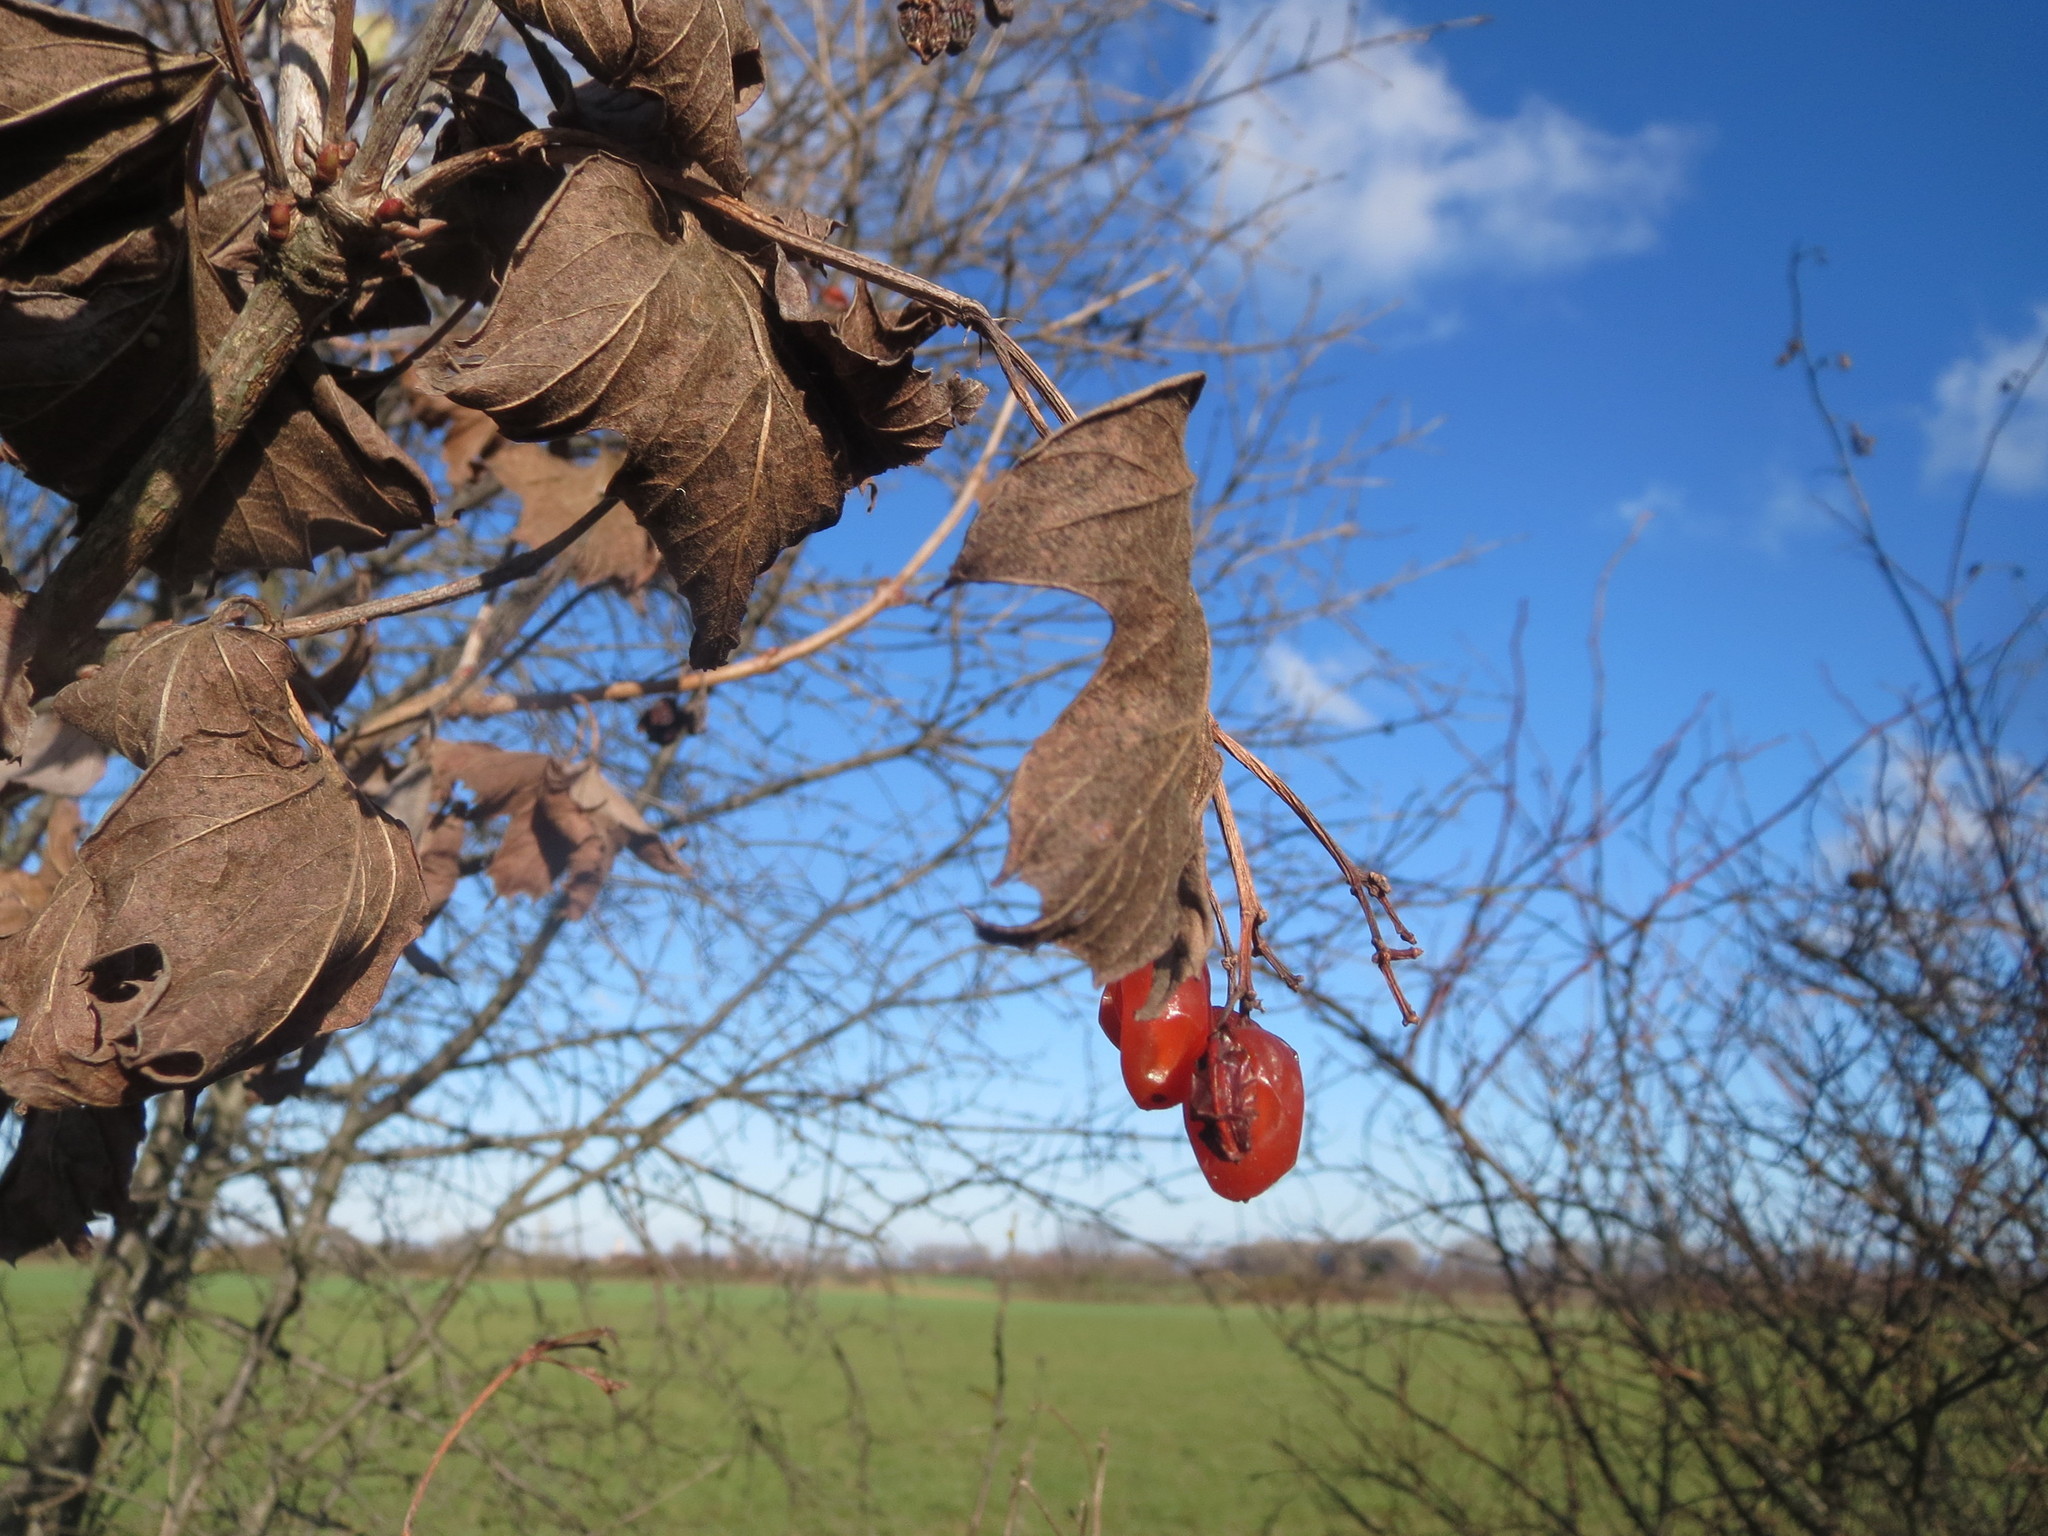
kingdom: Plantae
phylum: Tracheophyta
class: Magnoliopsida
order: Dipsacales
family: Viburnaceae
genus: Viburnum
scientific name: Viburnum opulus
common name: Guelder-rose
